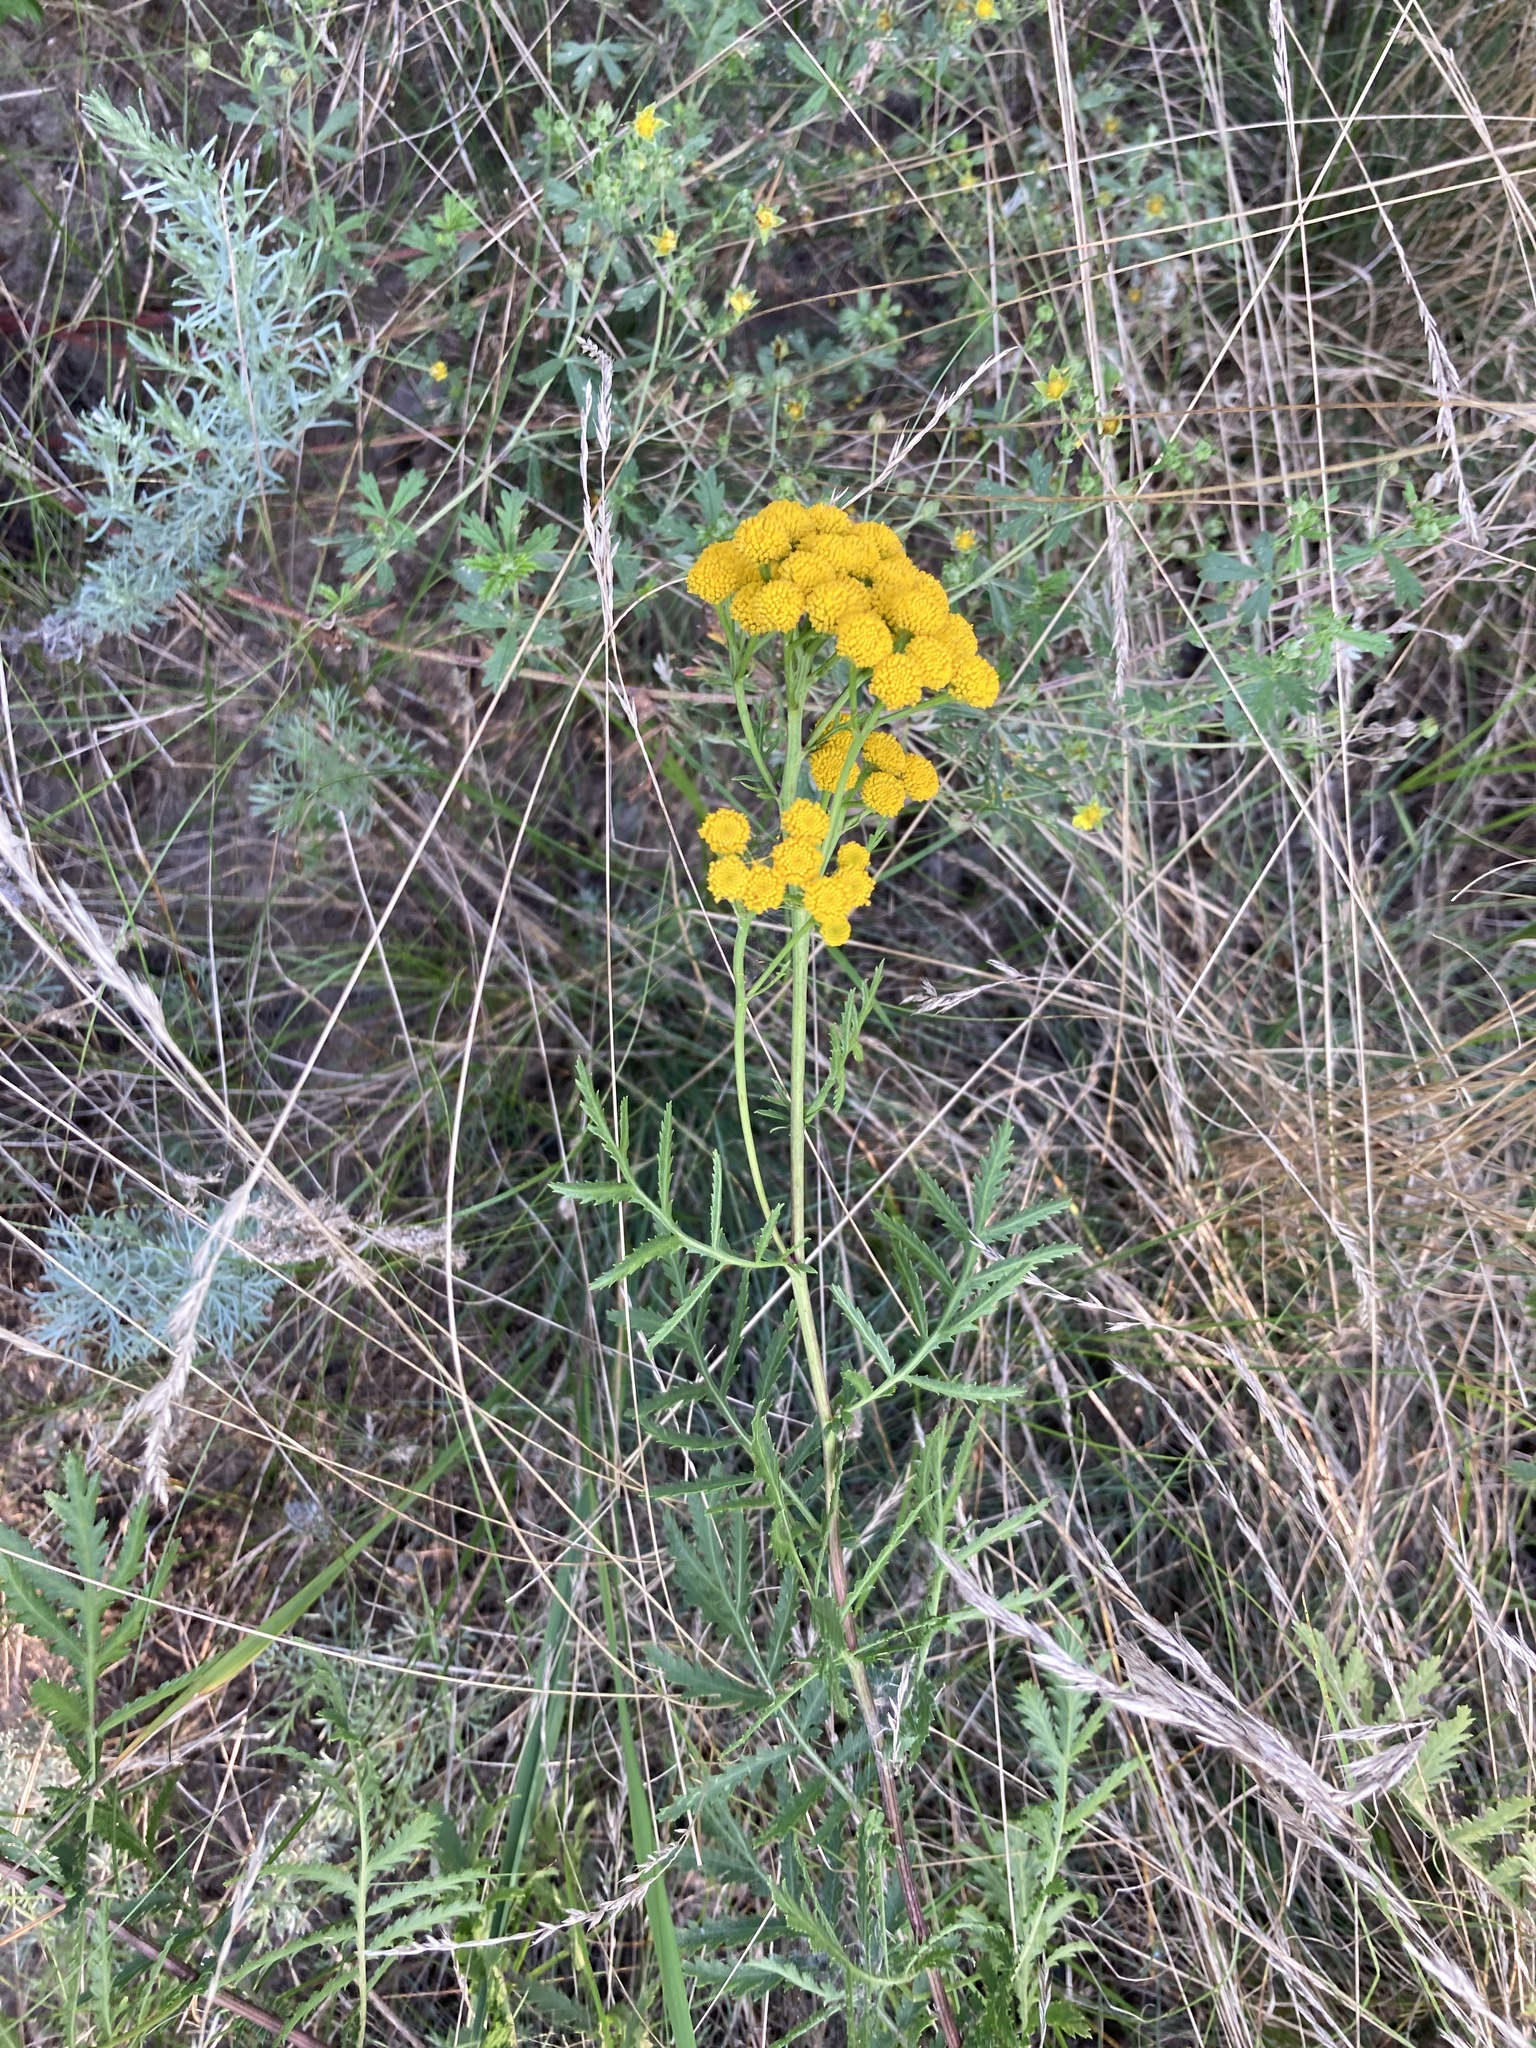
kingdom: Plantae
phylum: Tracheophyta
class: Magnoliopsida
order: Asterales
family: Asteraceae
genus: Tanacetum
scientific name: Tanacetum vulgare
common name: Common tansy
